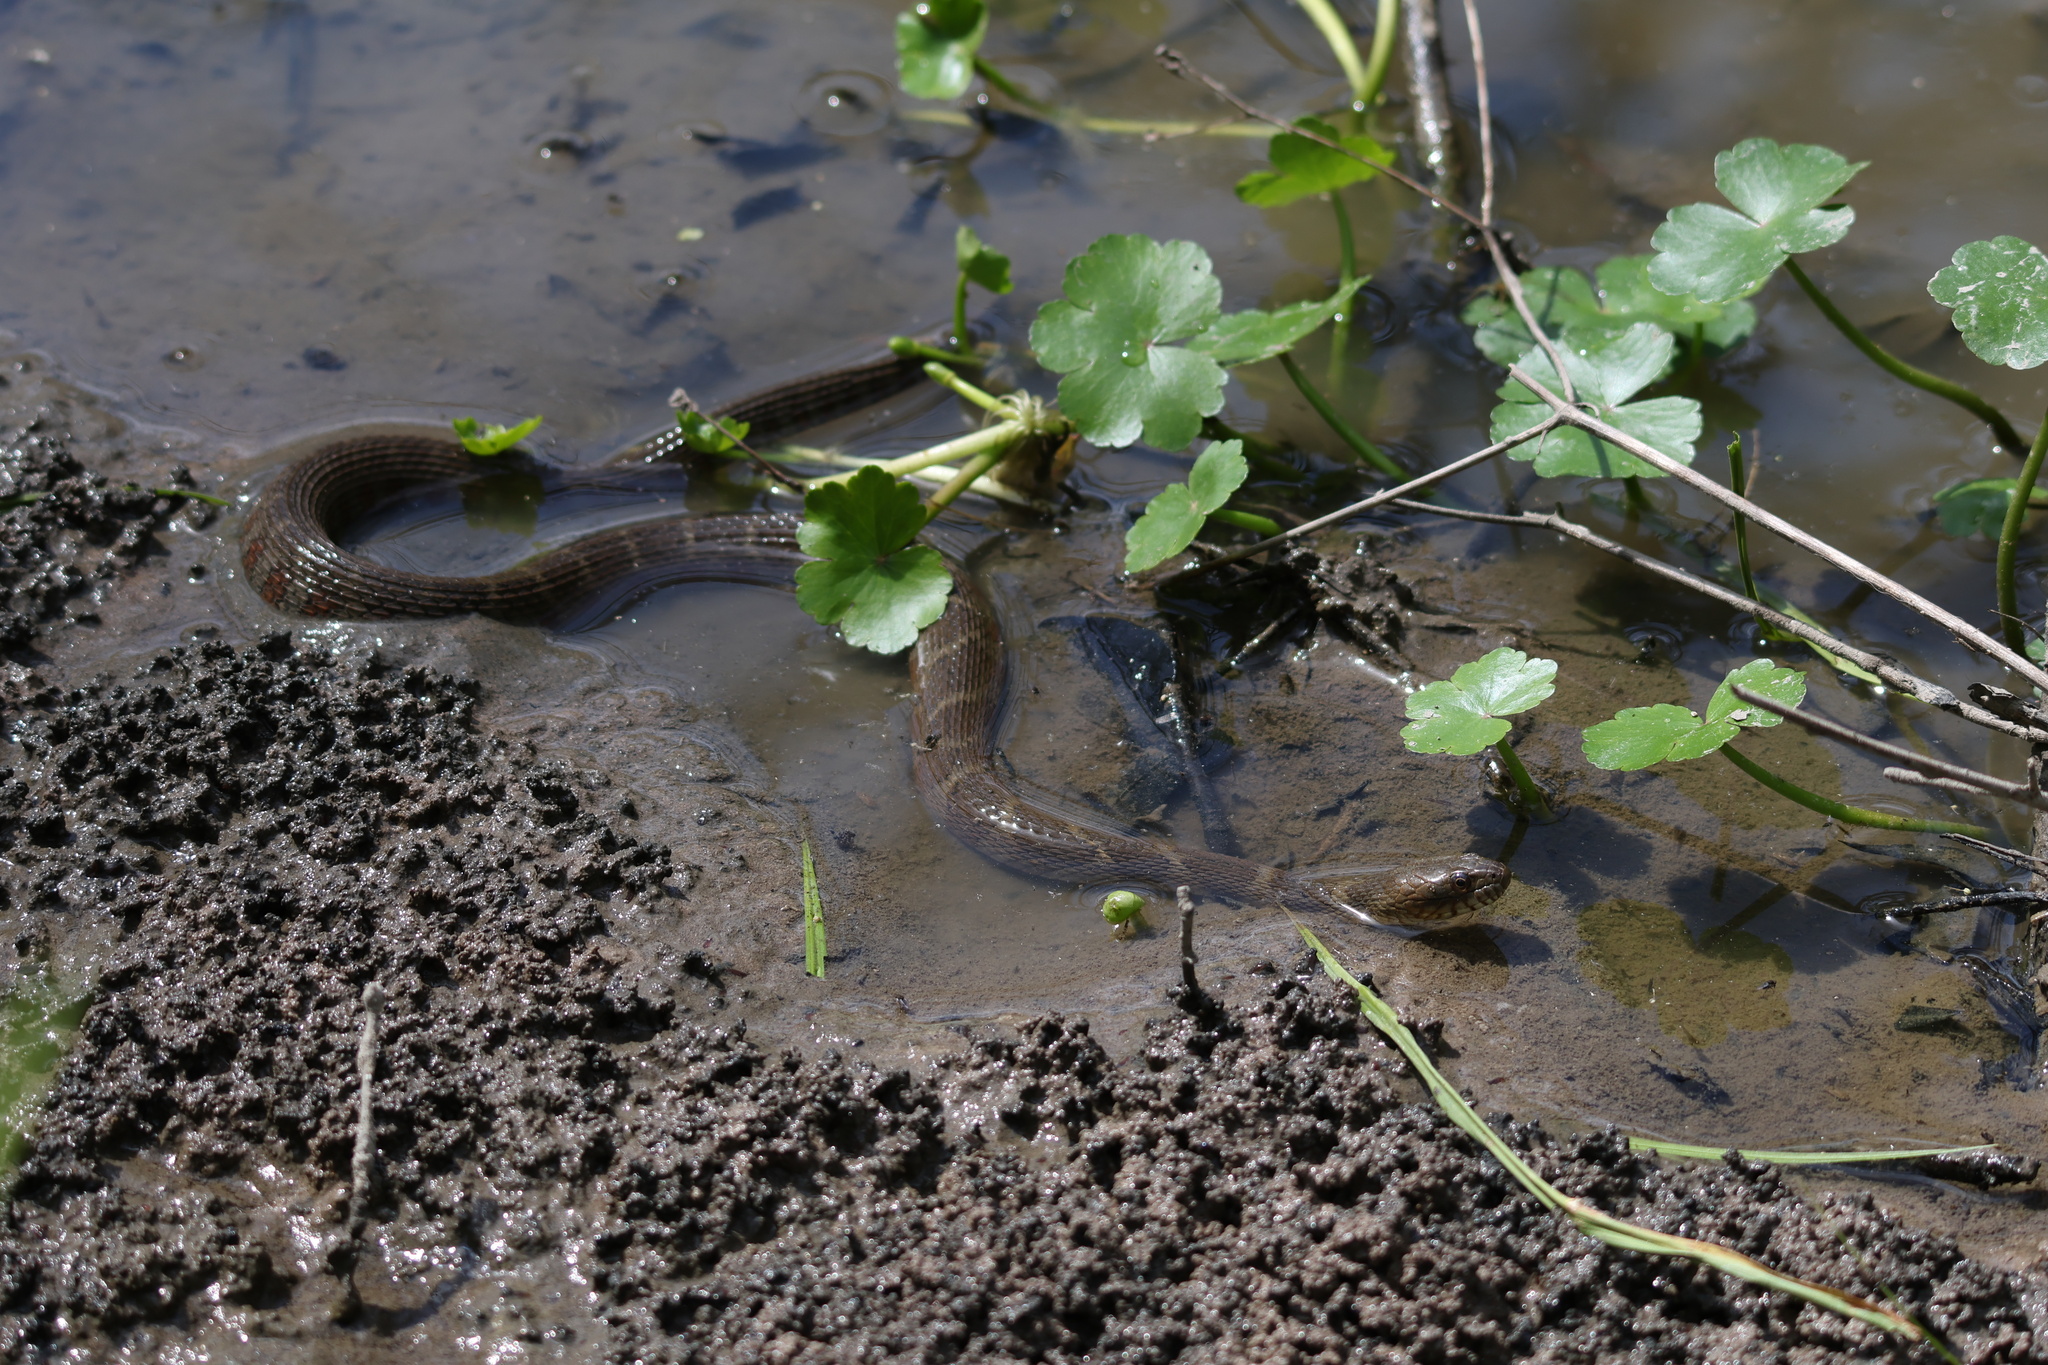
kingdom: Animalia
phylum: Chordata
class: Squamata
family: Colubridae
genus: Nerodia
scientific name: Nerodia sipedon
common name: Northern water snake
